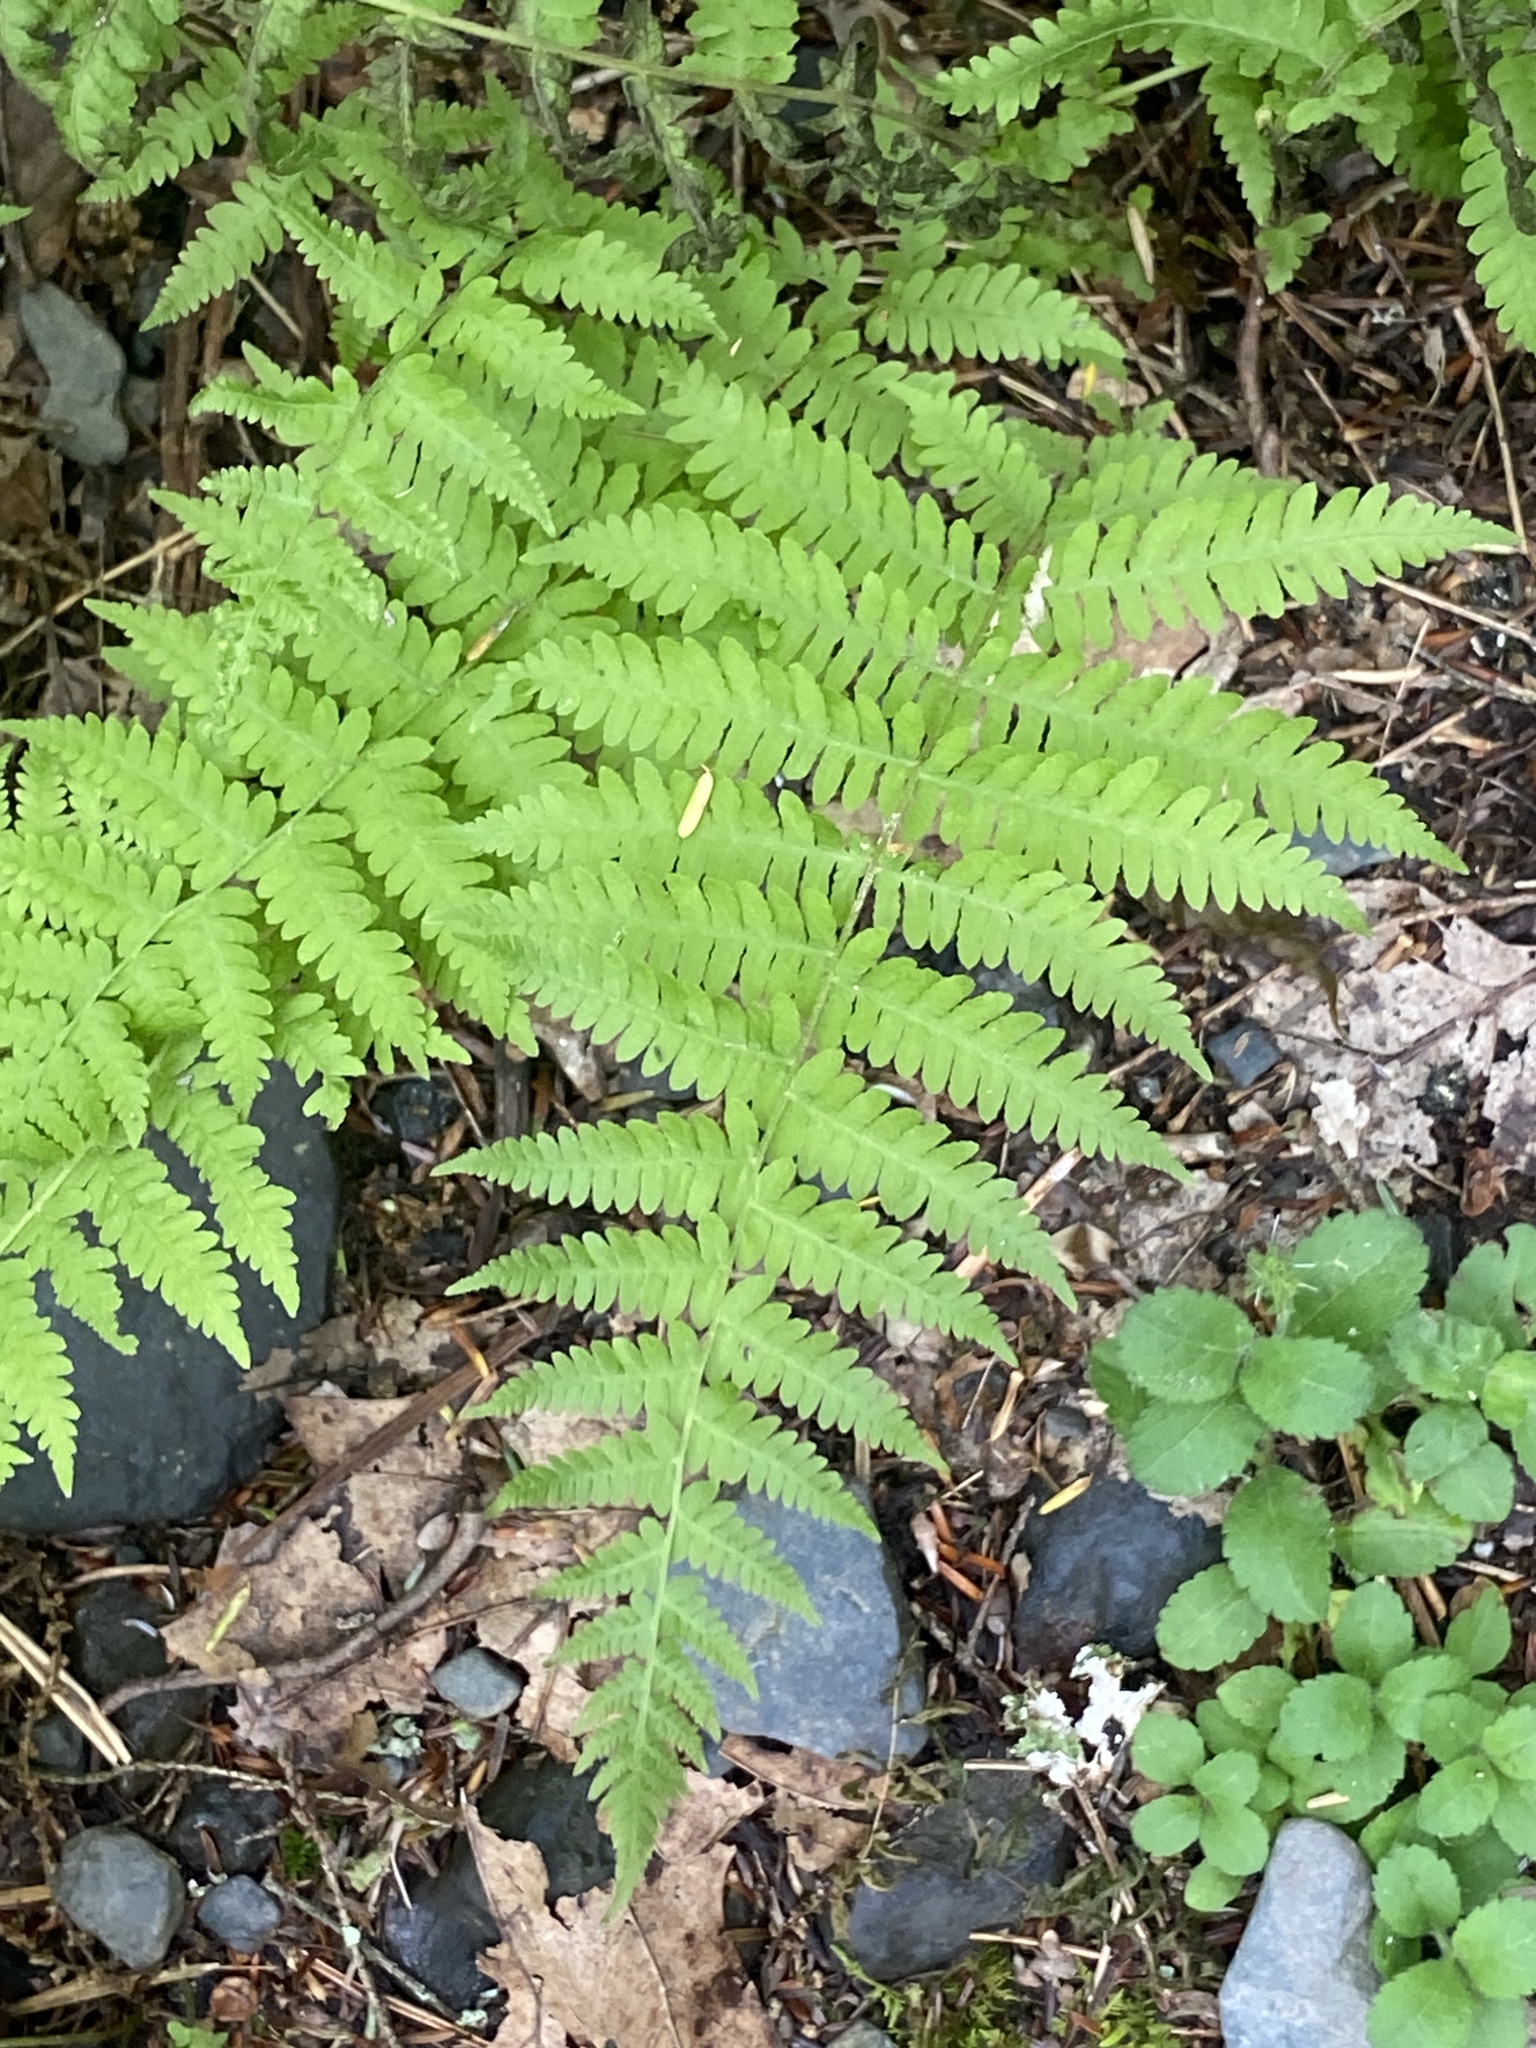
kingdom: Plantae
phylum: Tracheophyta
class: Polypodiopsida
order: Polypodiales
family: Thelypteridaceae
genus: Amauropelta
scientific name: Amauropelta noveboracensis
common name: New york fern
